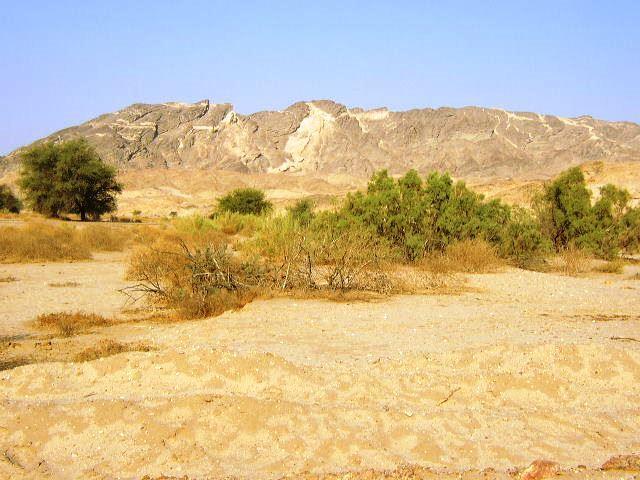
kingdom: Plantae
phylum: Tracheophyta
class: Magnoliopsida
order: Caryophyllales
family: Tamaricaceae
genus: Tamarix
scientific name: Tamarix usneoides
